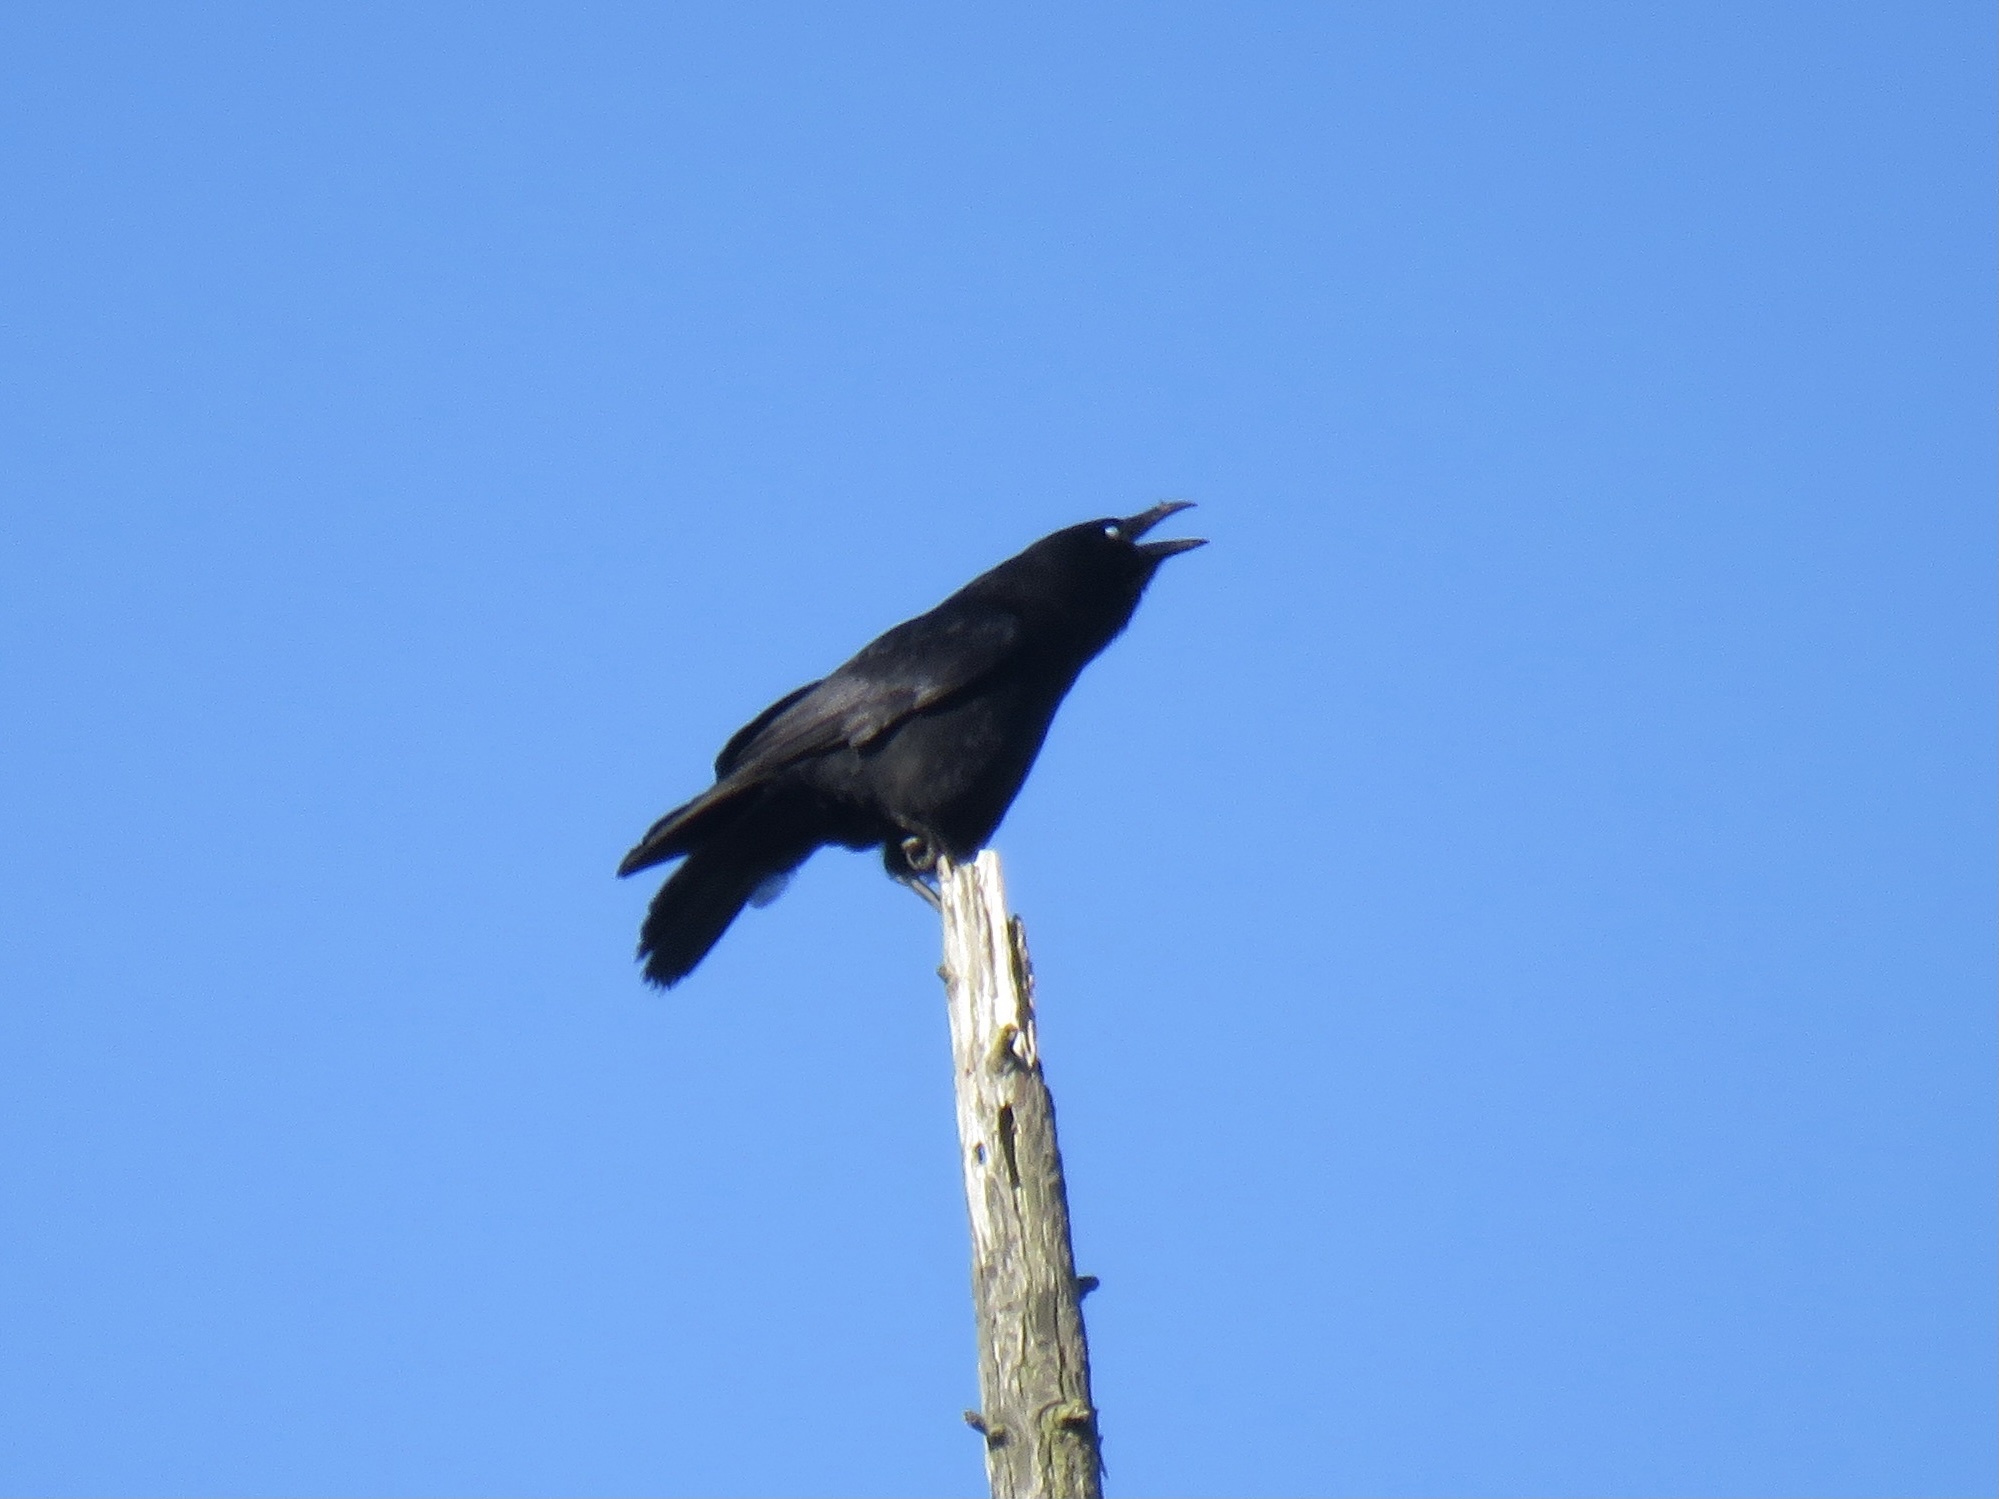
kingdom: Animalia
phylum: Chordata
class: Aves
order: Passeriformes
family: Corvidae
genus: Corvus
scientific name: Corvus corax
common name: Common raven
